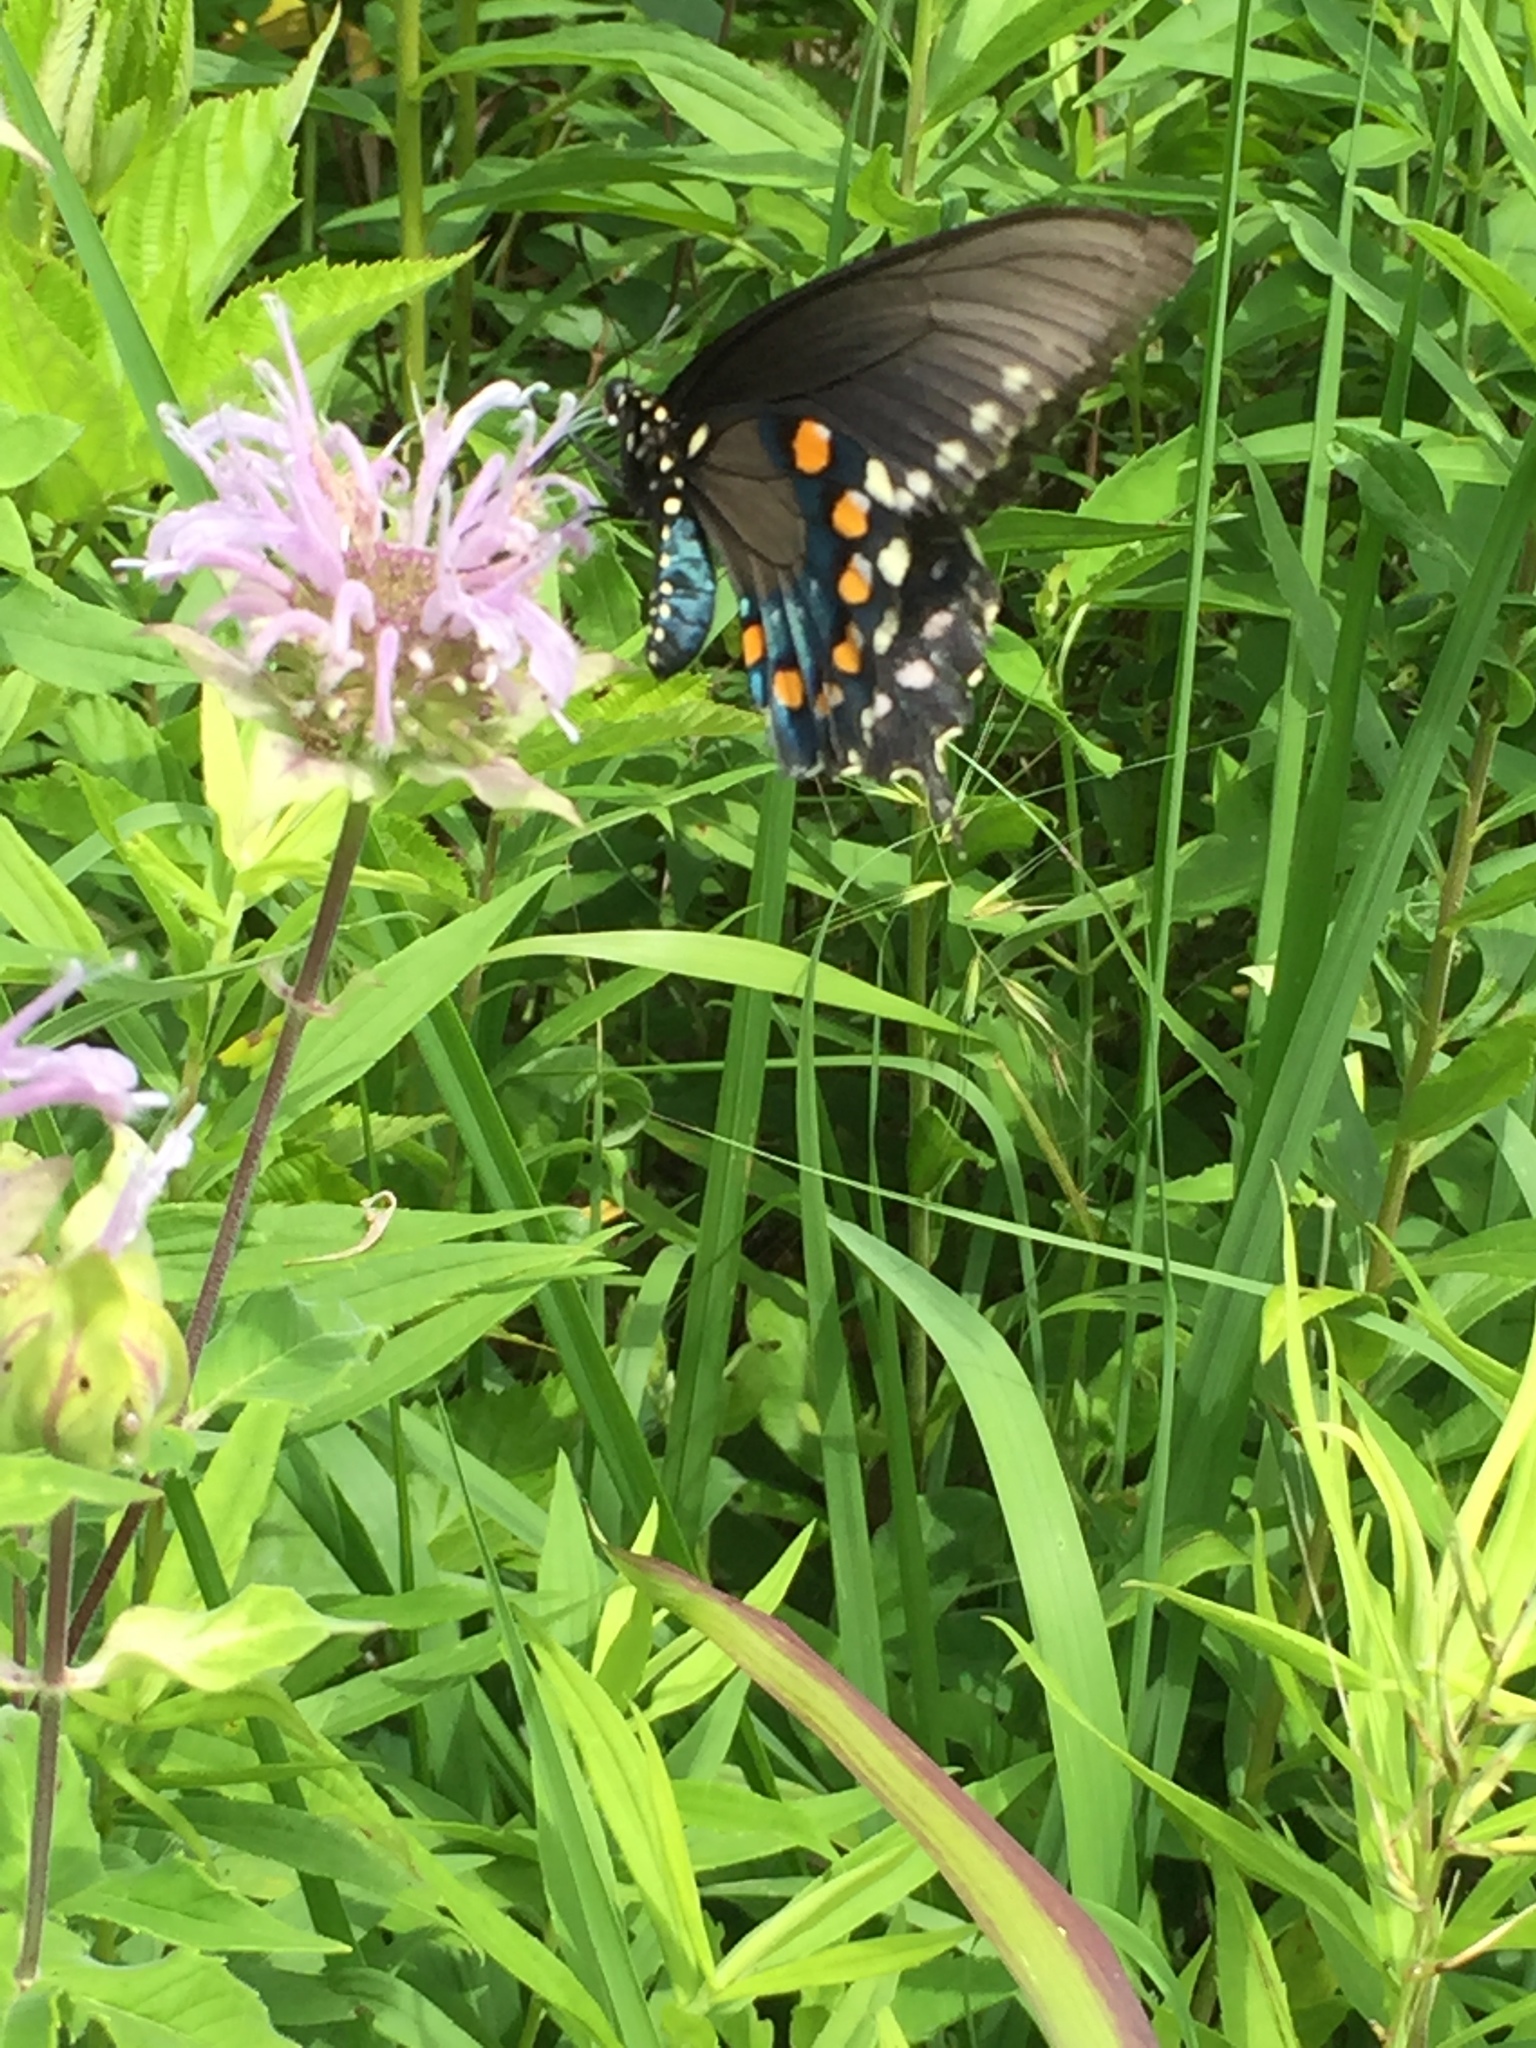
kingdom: Animalia
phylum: Arthropoda
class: Insecta
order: Lepidoptera
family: Papilionidae
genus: Battus
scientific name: Battus philenor
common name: Pipevine swallowtail
